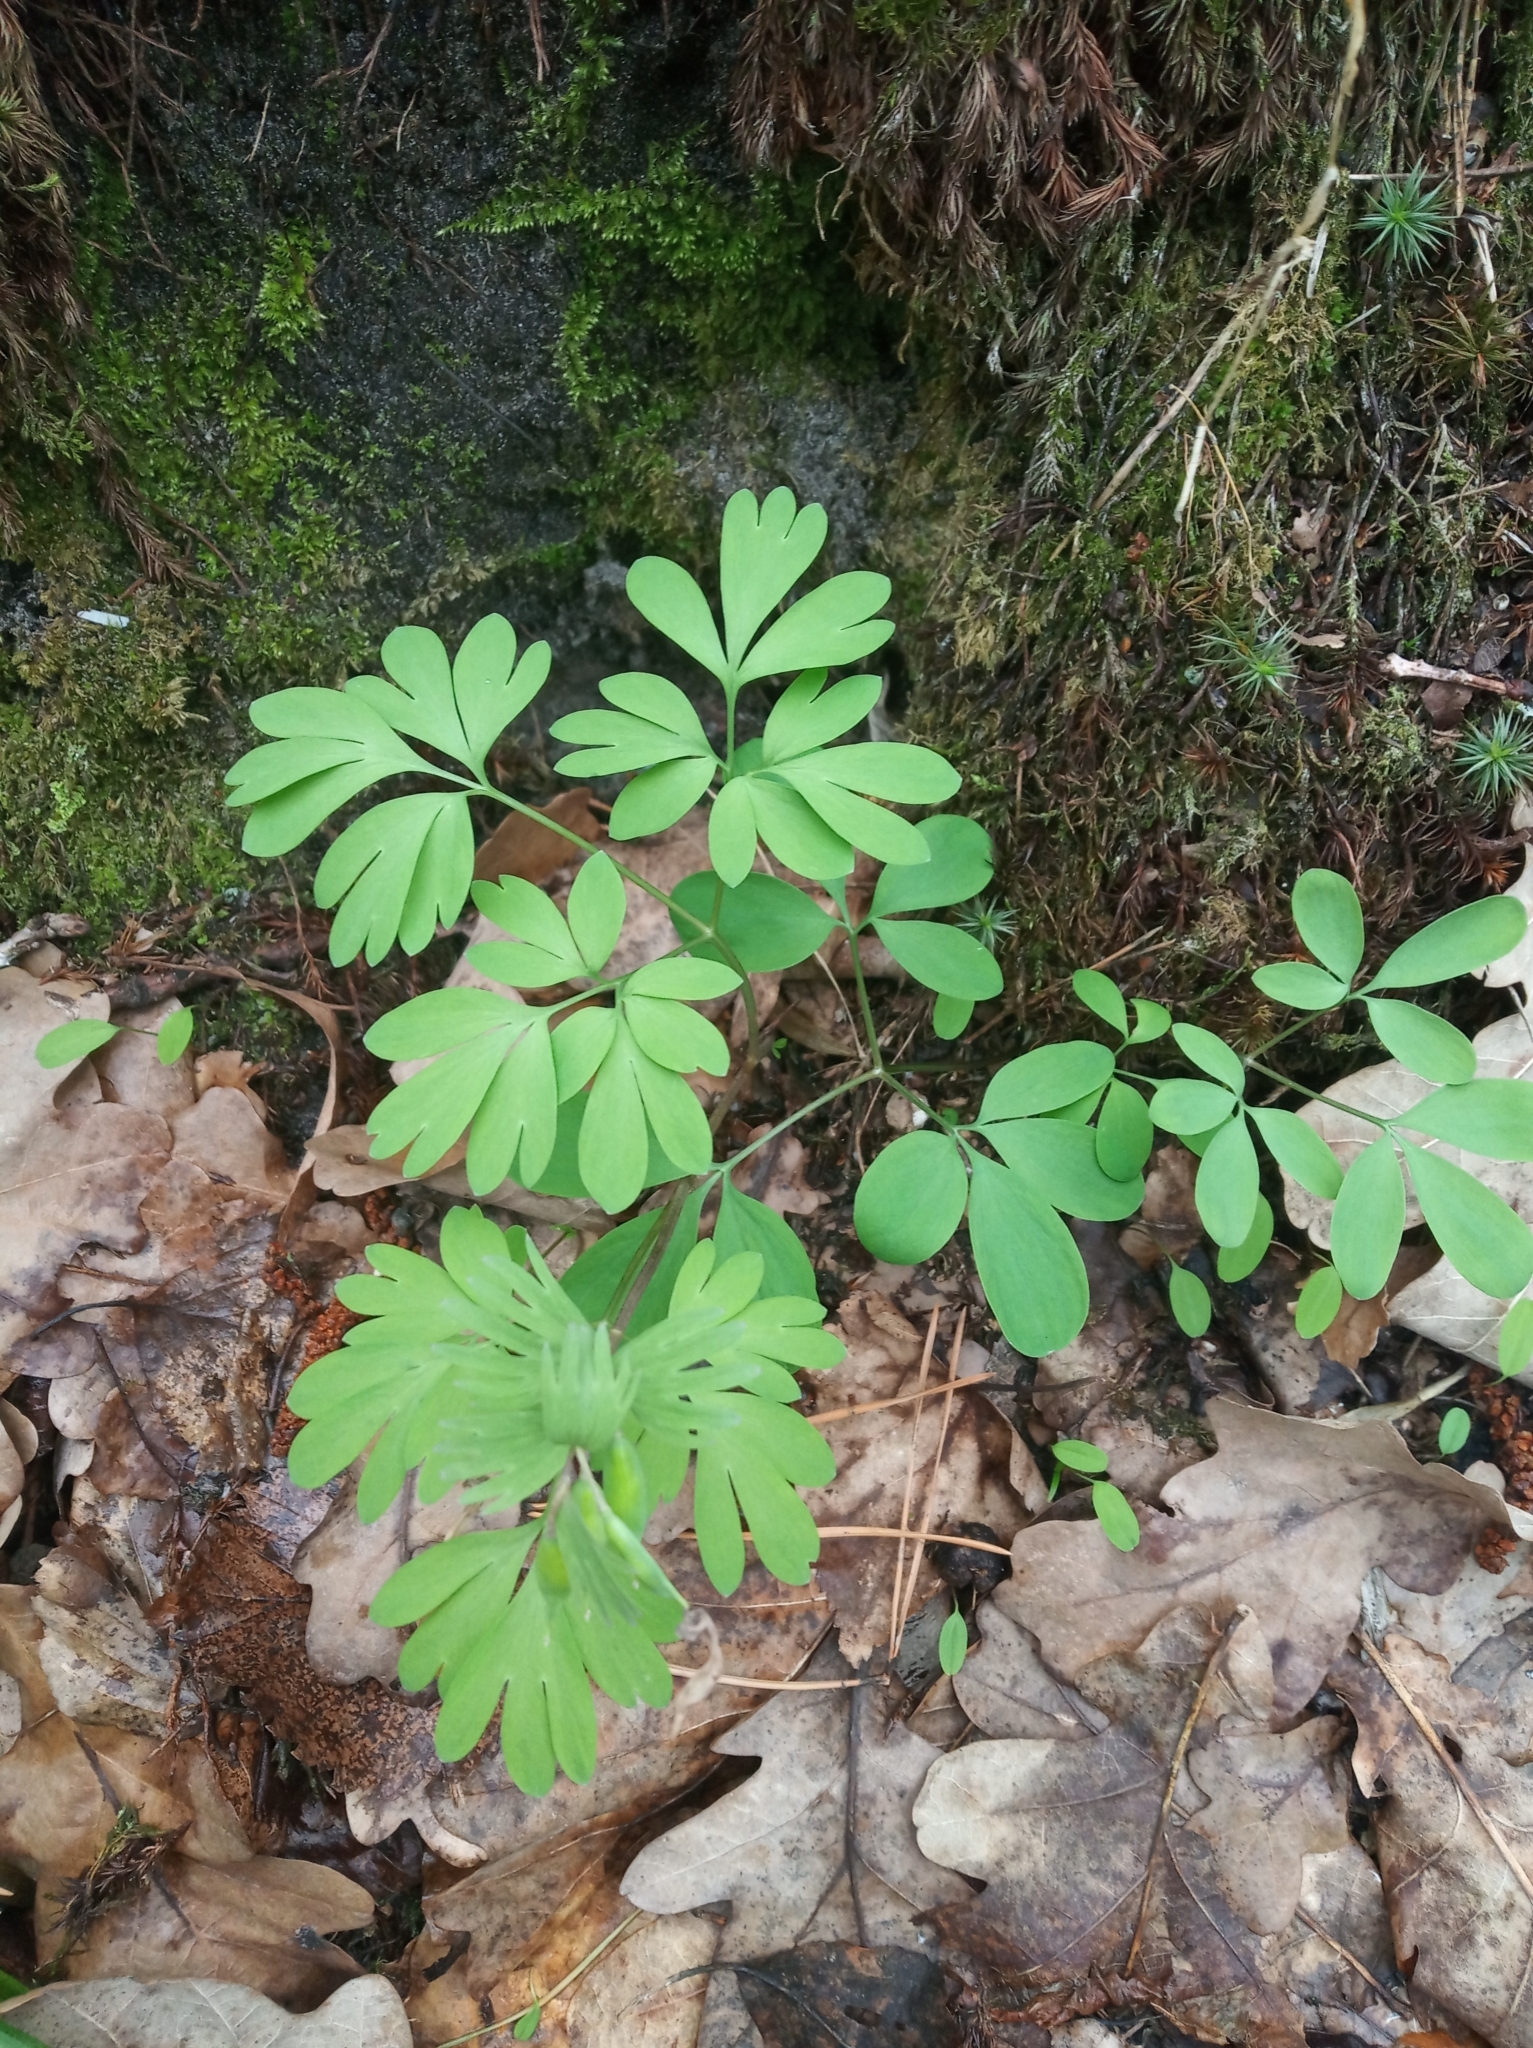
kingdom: Plantae
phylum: Tracheophyta
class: Magnoliopsida
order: Ranunculales
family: Papaveraceae
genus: Corydalis
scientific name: Corydalis solida
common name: Bird-in-a-bush
